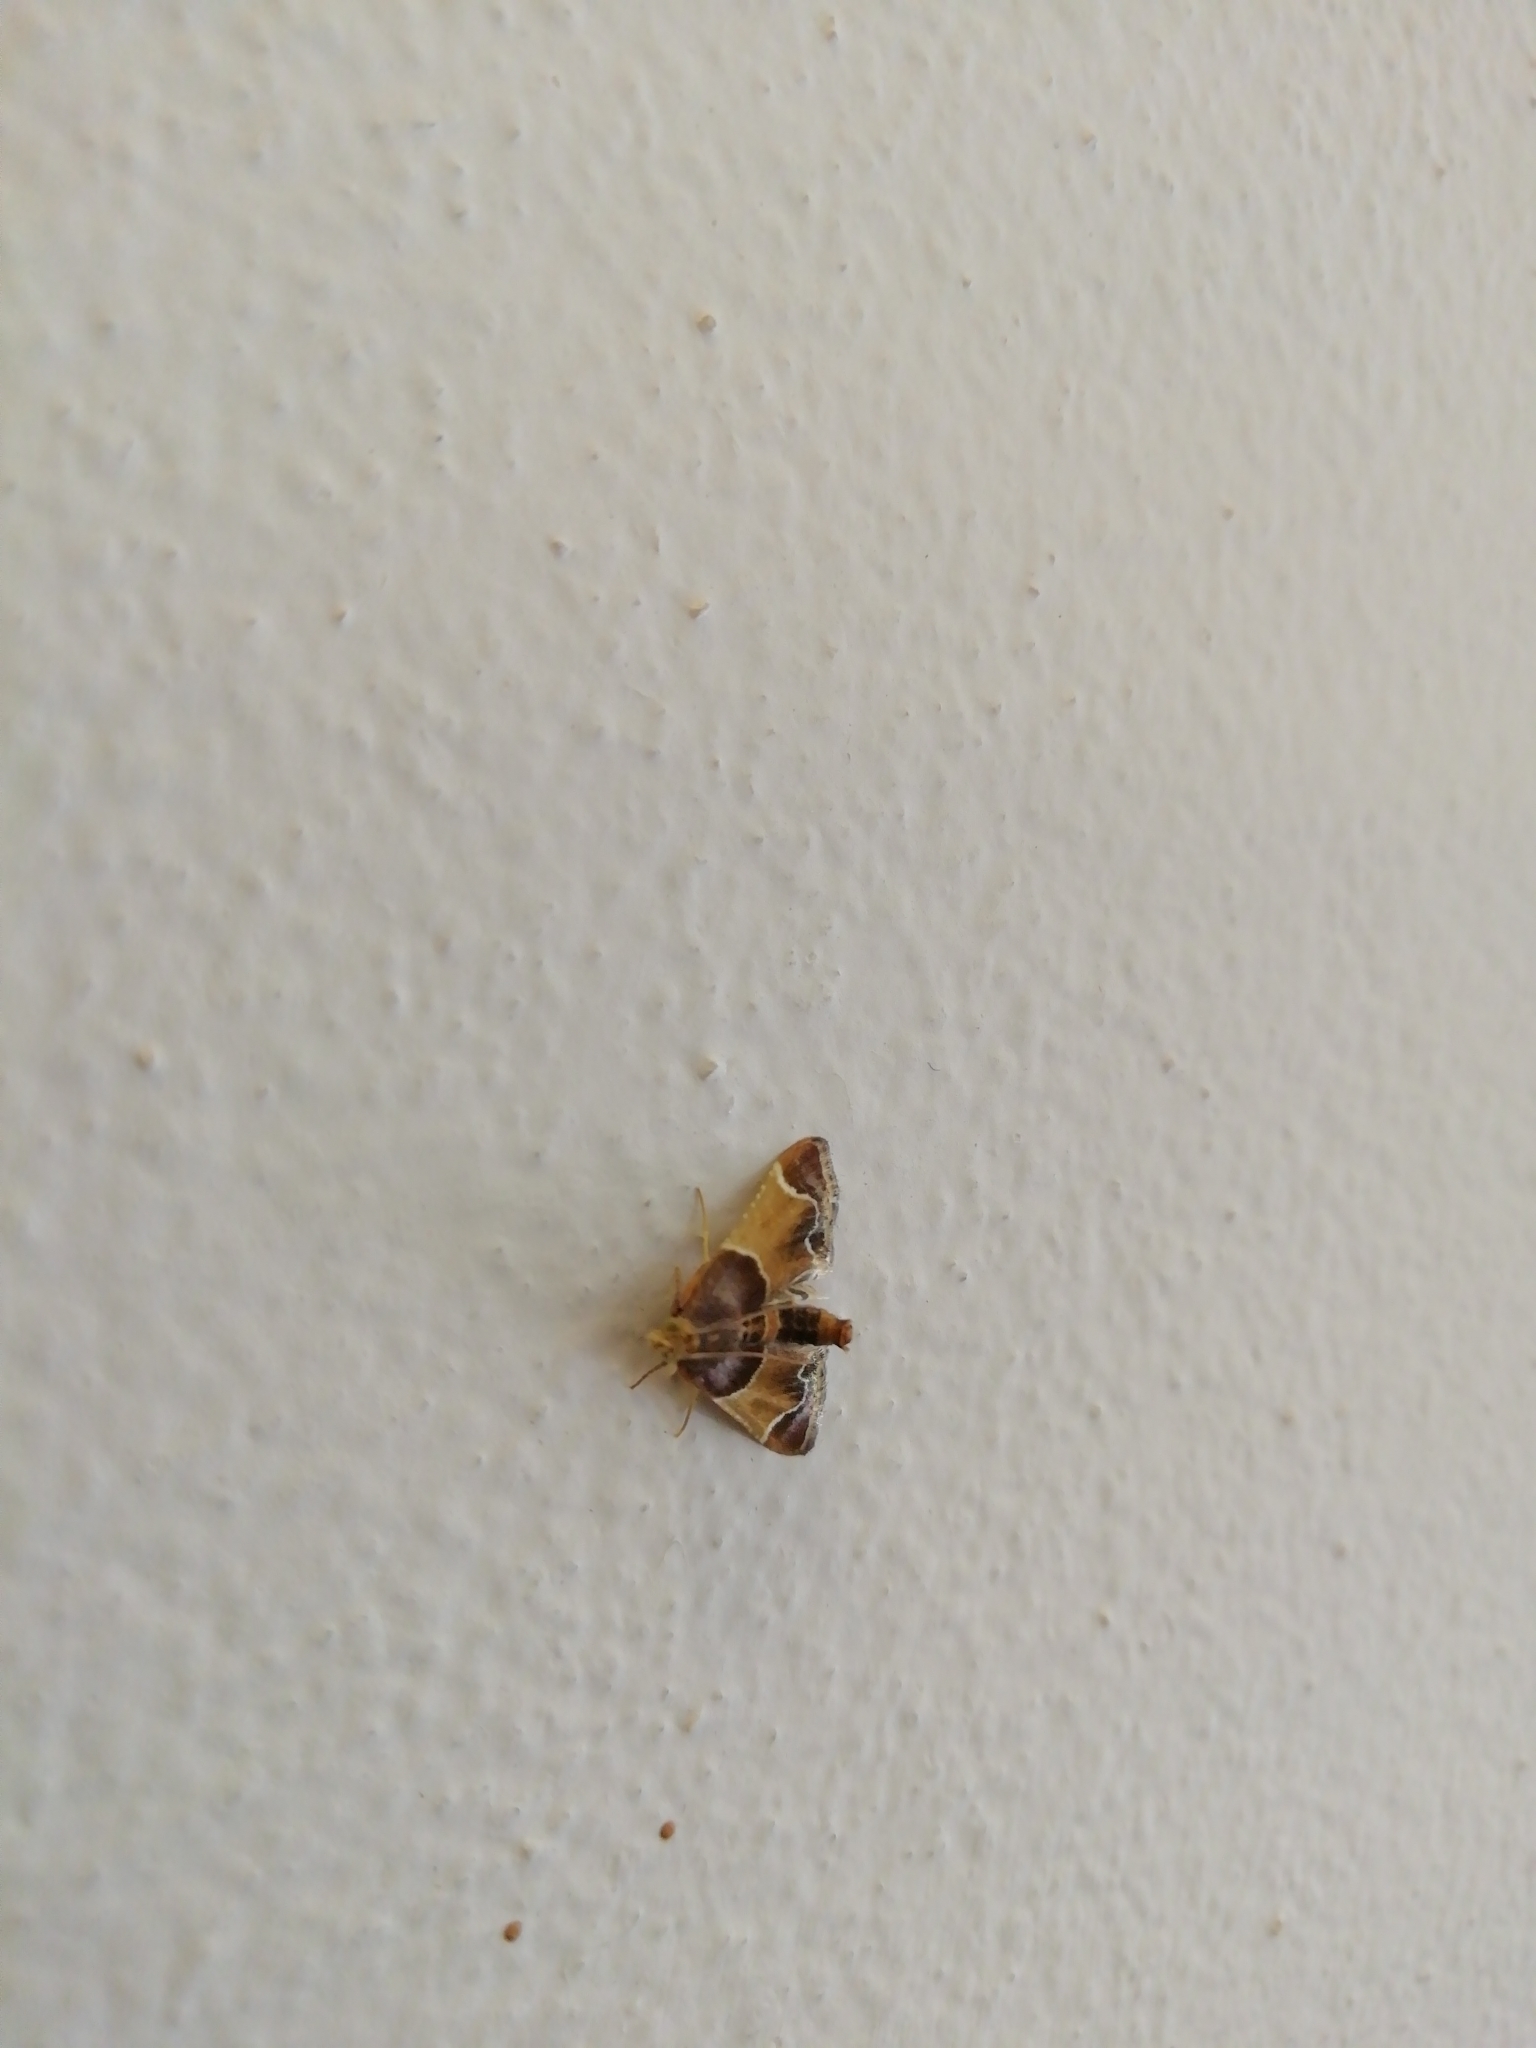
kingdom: Animalia
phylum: Arthropoda
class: Insecta
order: Lepidoptera
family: Pyralidae
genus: Pyralis
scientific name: Pyralis farinalis
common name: Meal moth
